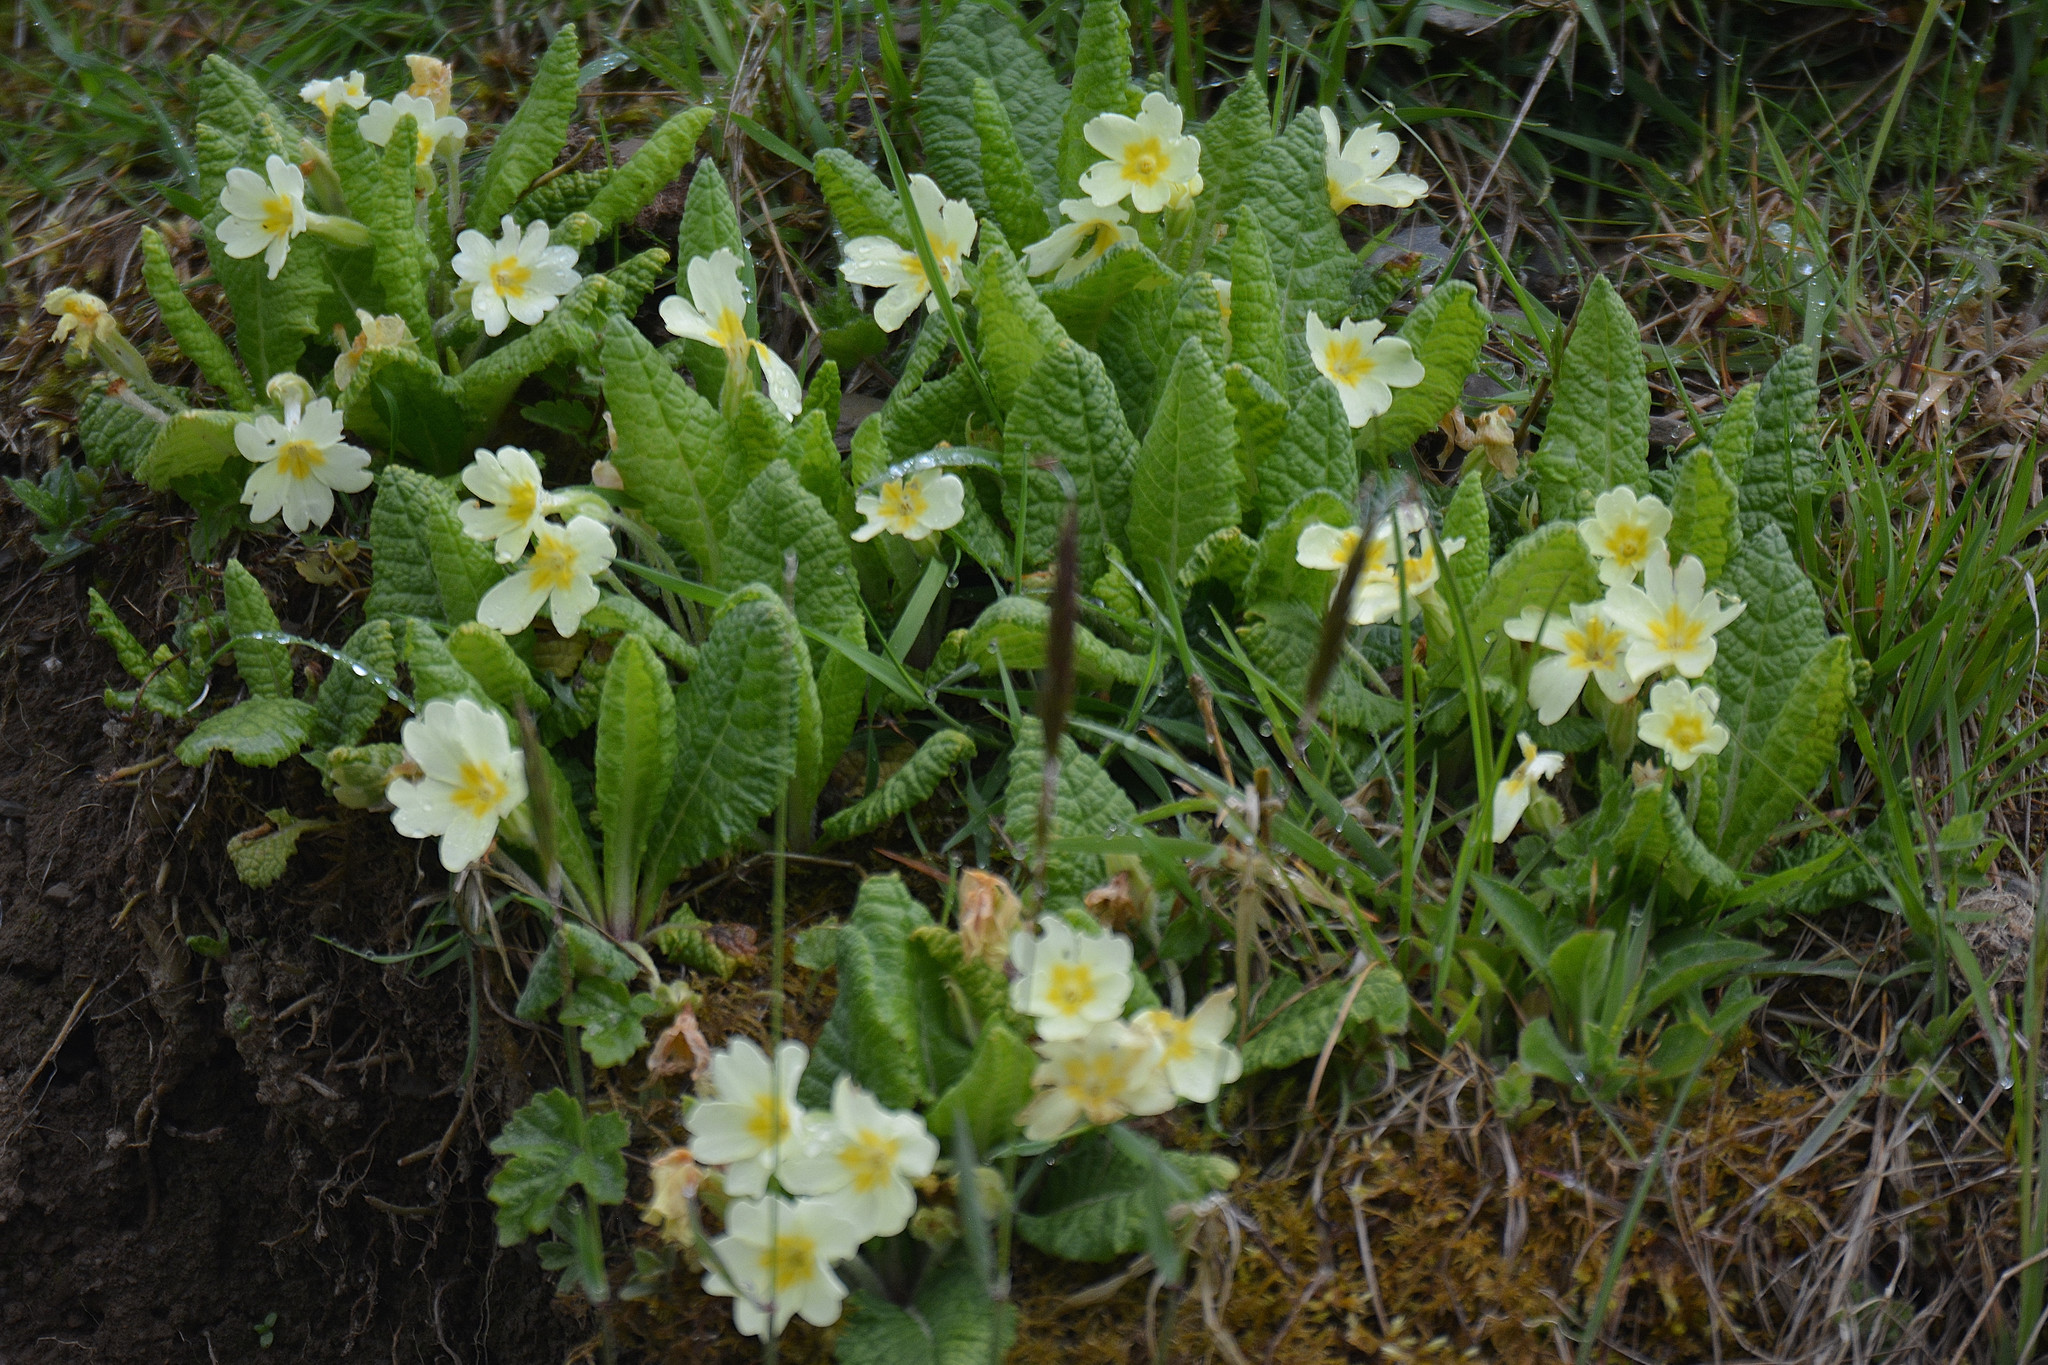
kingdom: Plantae
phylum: Tracheophyta
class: Magnoliopsida
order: Ericales
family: Primulaceae
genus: Primula
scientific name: Primula vulgaris
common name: Primrose
